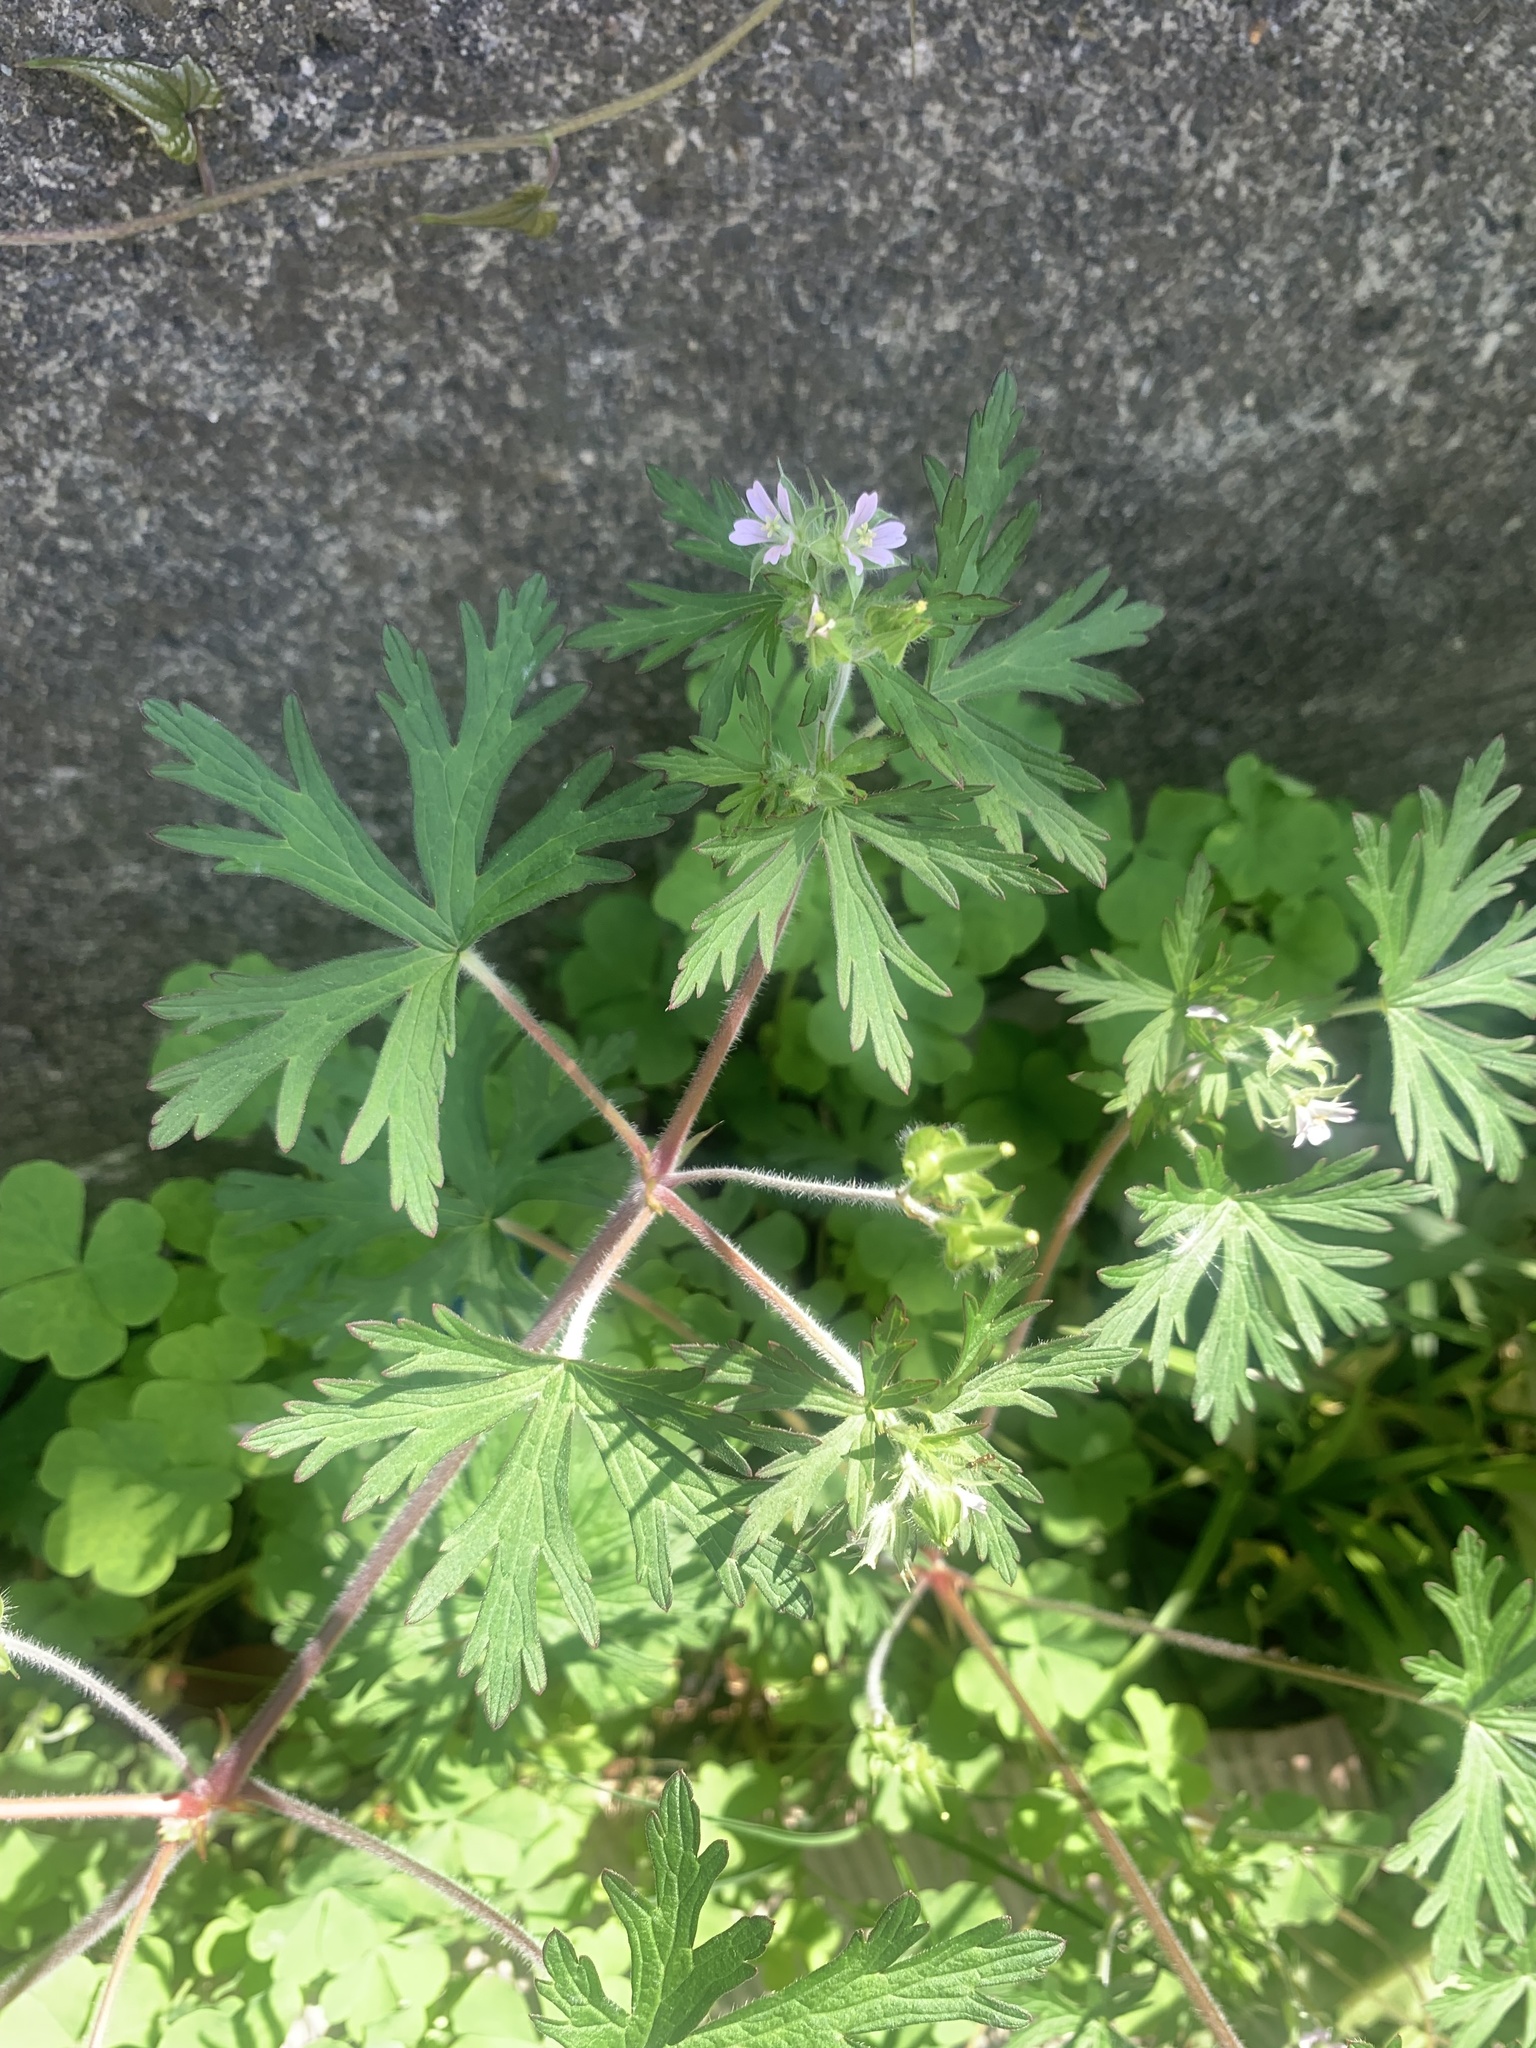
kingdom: Plantae
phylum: Tracheophyta
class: Magnoliopsida
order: Geraniales
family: Geraniaceae
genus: Geranium
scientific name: Geranium carolinianum
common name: Carolina crane's-bill
